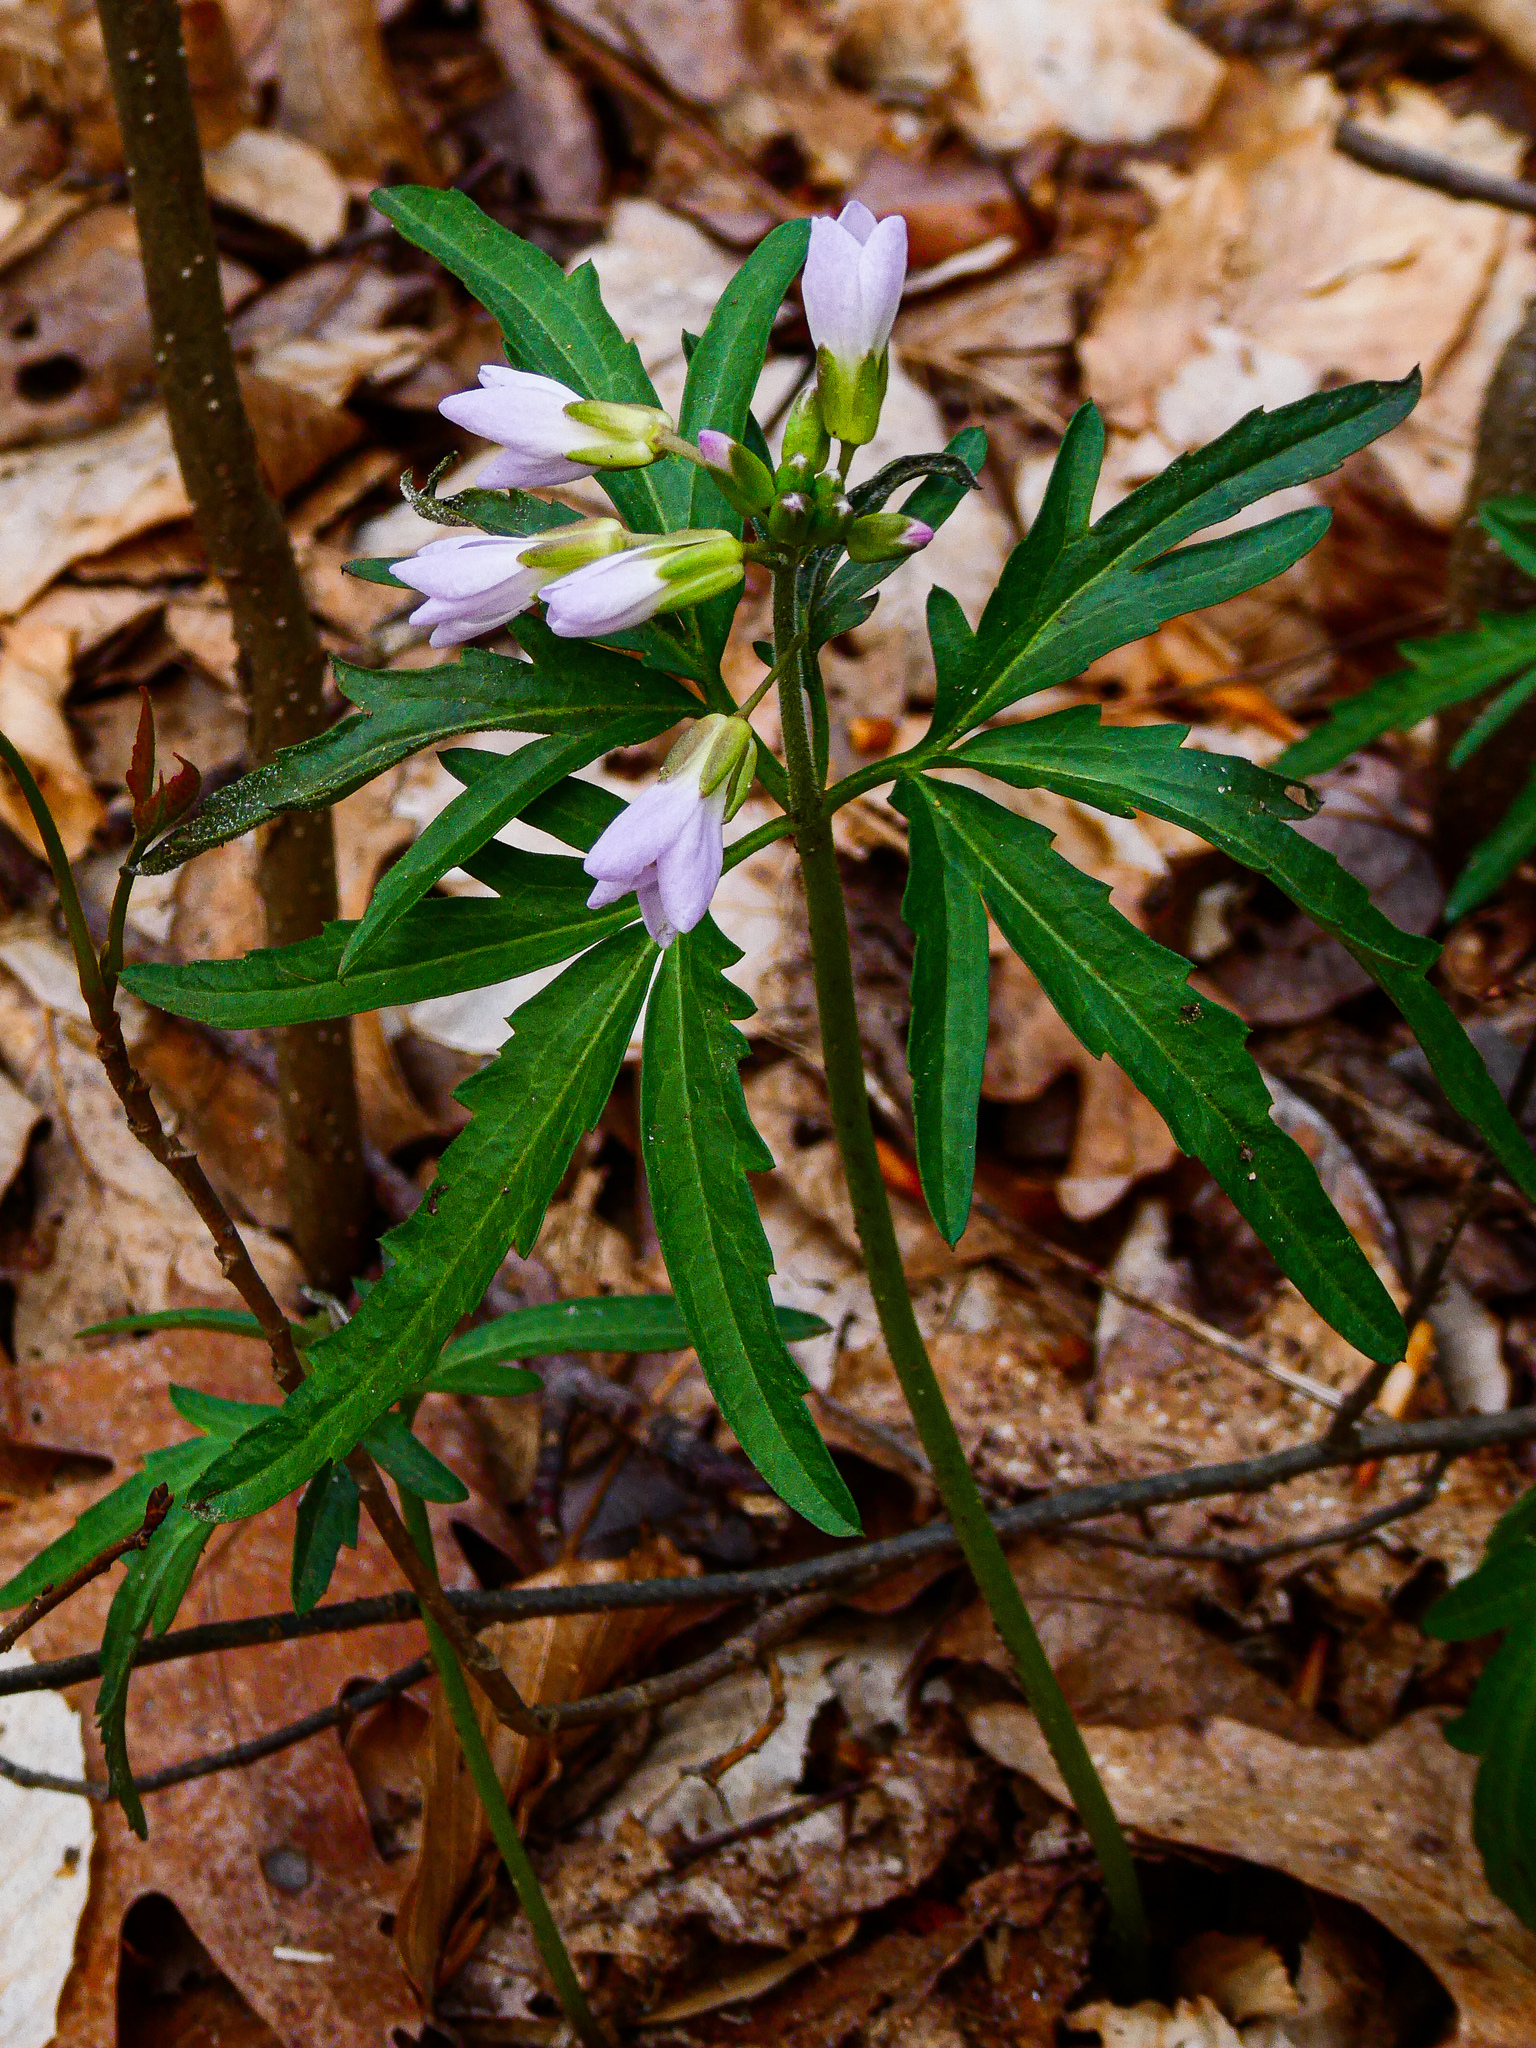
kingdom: Plantae
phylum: Tracheophyta
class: Magnoliopsida
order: Brassicales
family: Brassicaceae
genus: Cardamine
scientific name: Cardamine concatenata
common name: Cut-leaf toothcup
